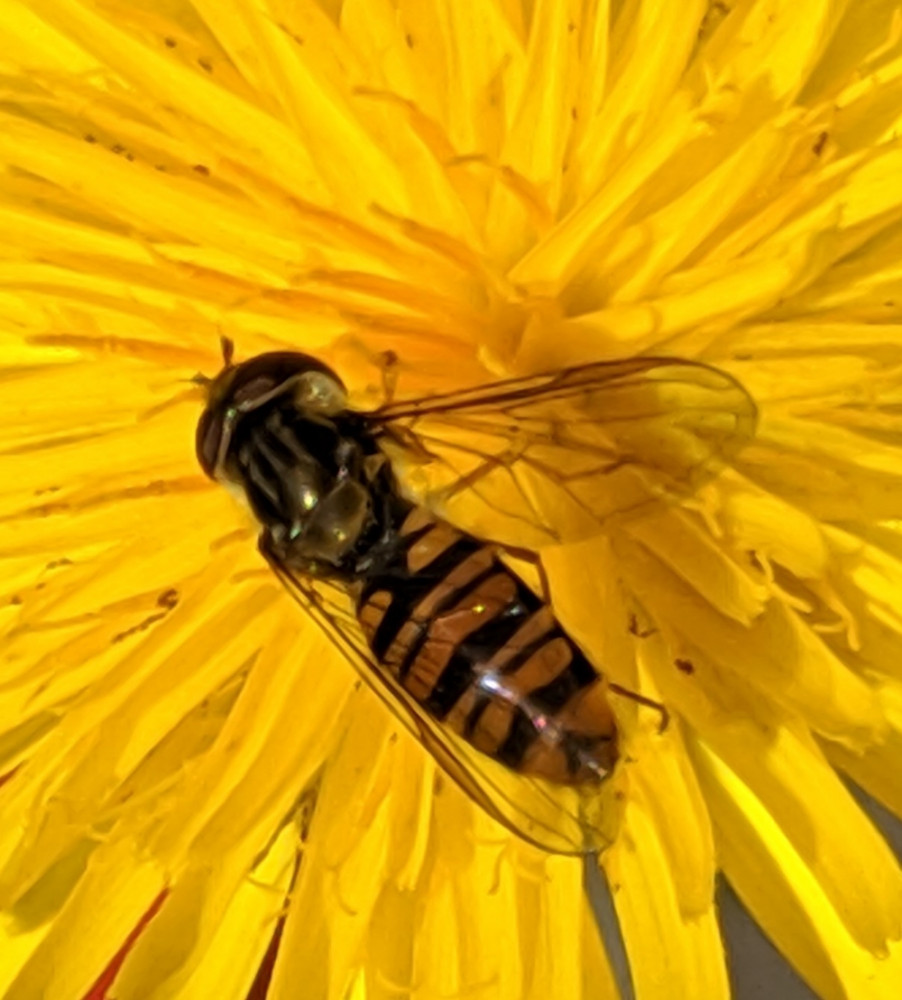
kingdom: Animalia
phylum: Arthropoda
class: Insecta
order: Diptera
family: Syrphidae
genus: Episyrphus
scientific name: Episyrphus balteatus
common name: Marmalade hoverfly
